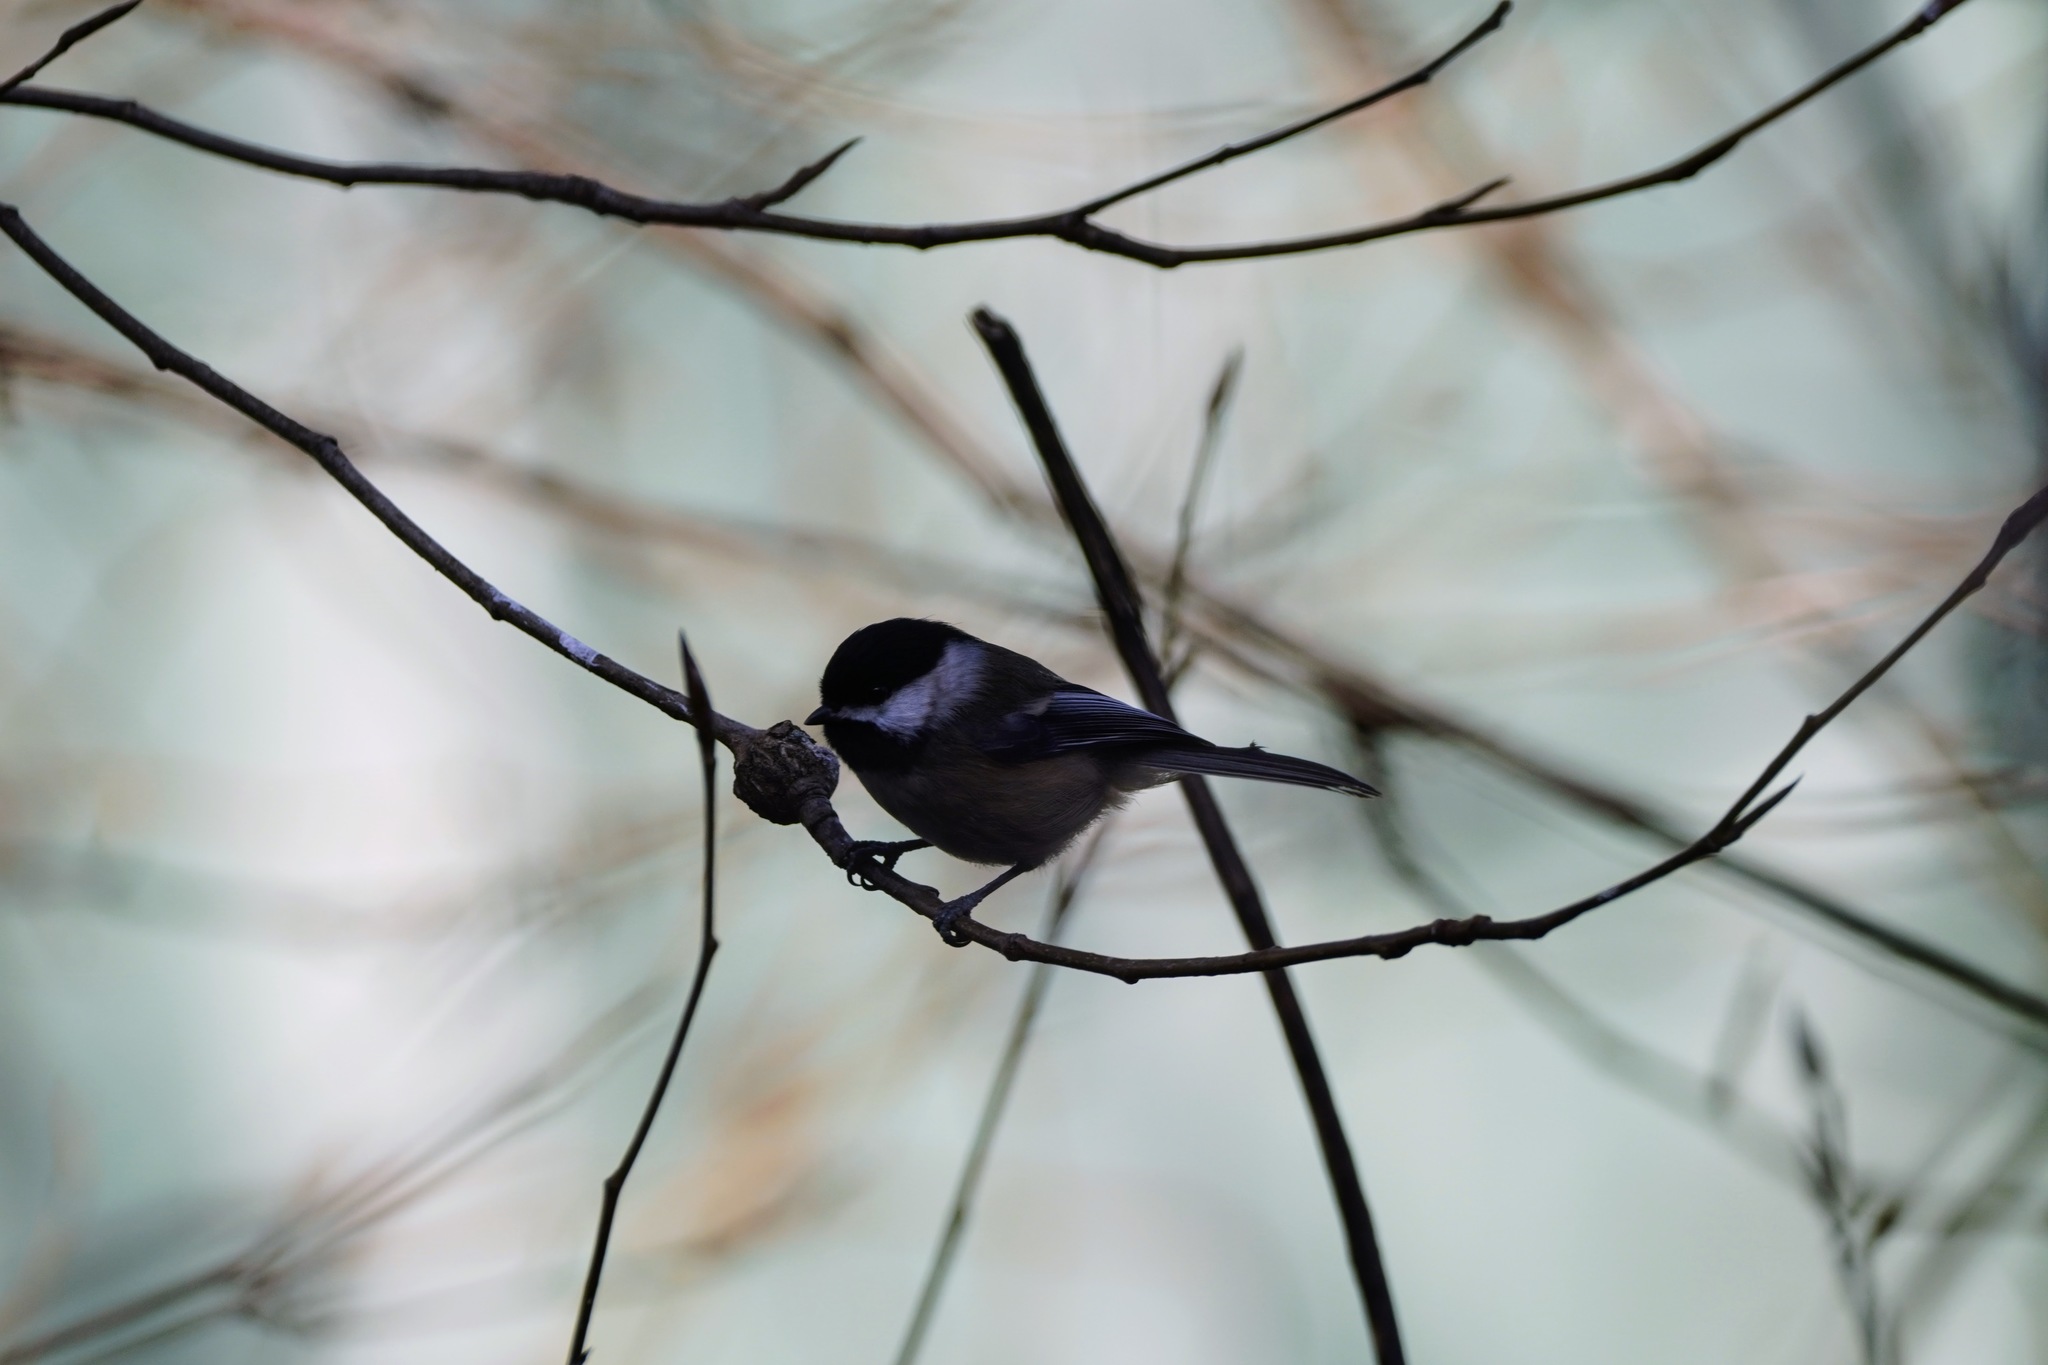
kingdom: Animalia
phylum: Chordata
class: Aves
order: Passeriformes
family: Paridae
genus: Poecile
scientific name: Poecile atricapillus
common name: Black-capped chickadee
